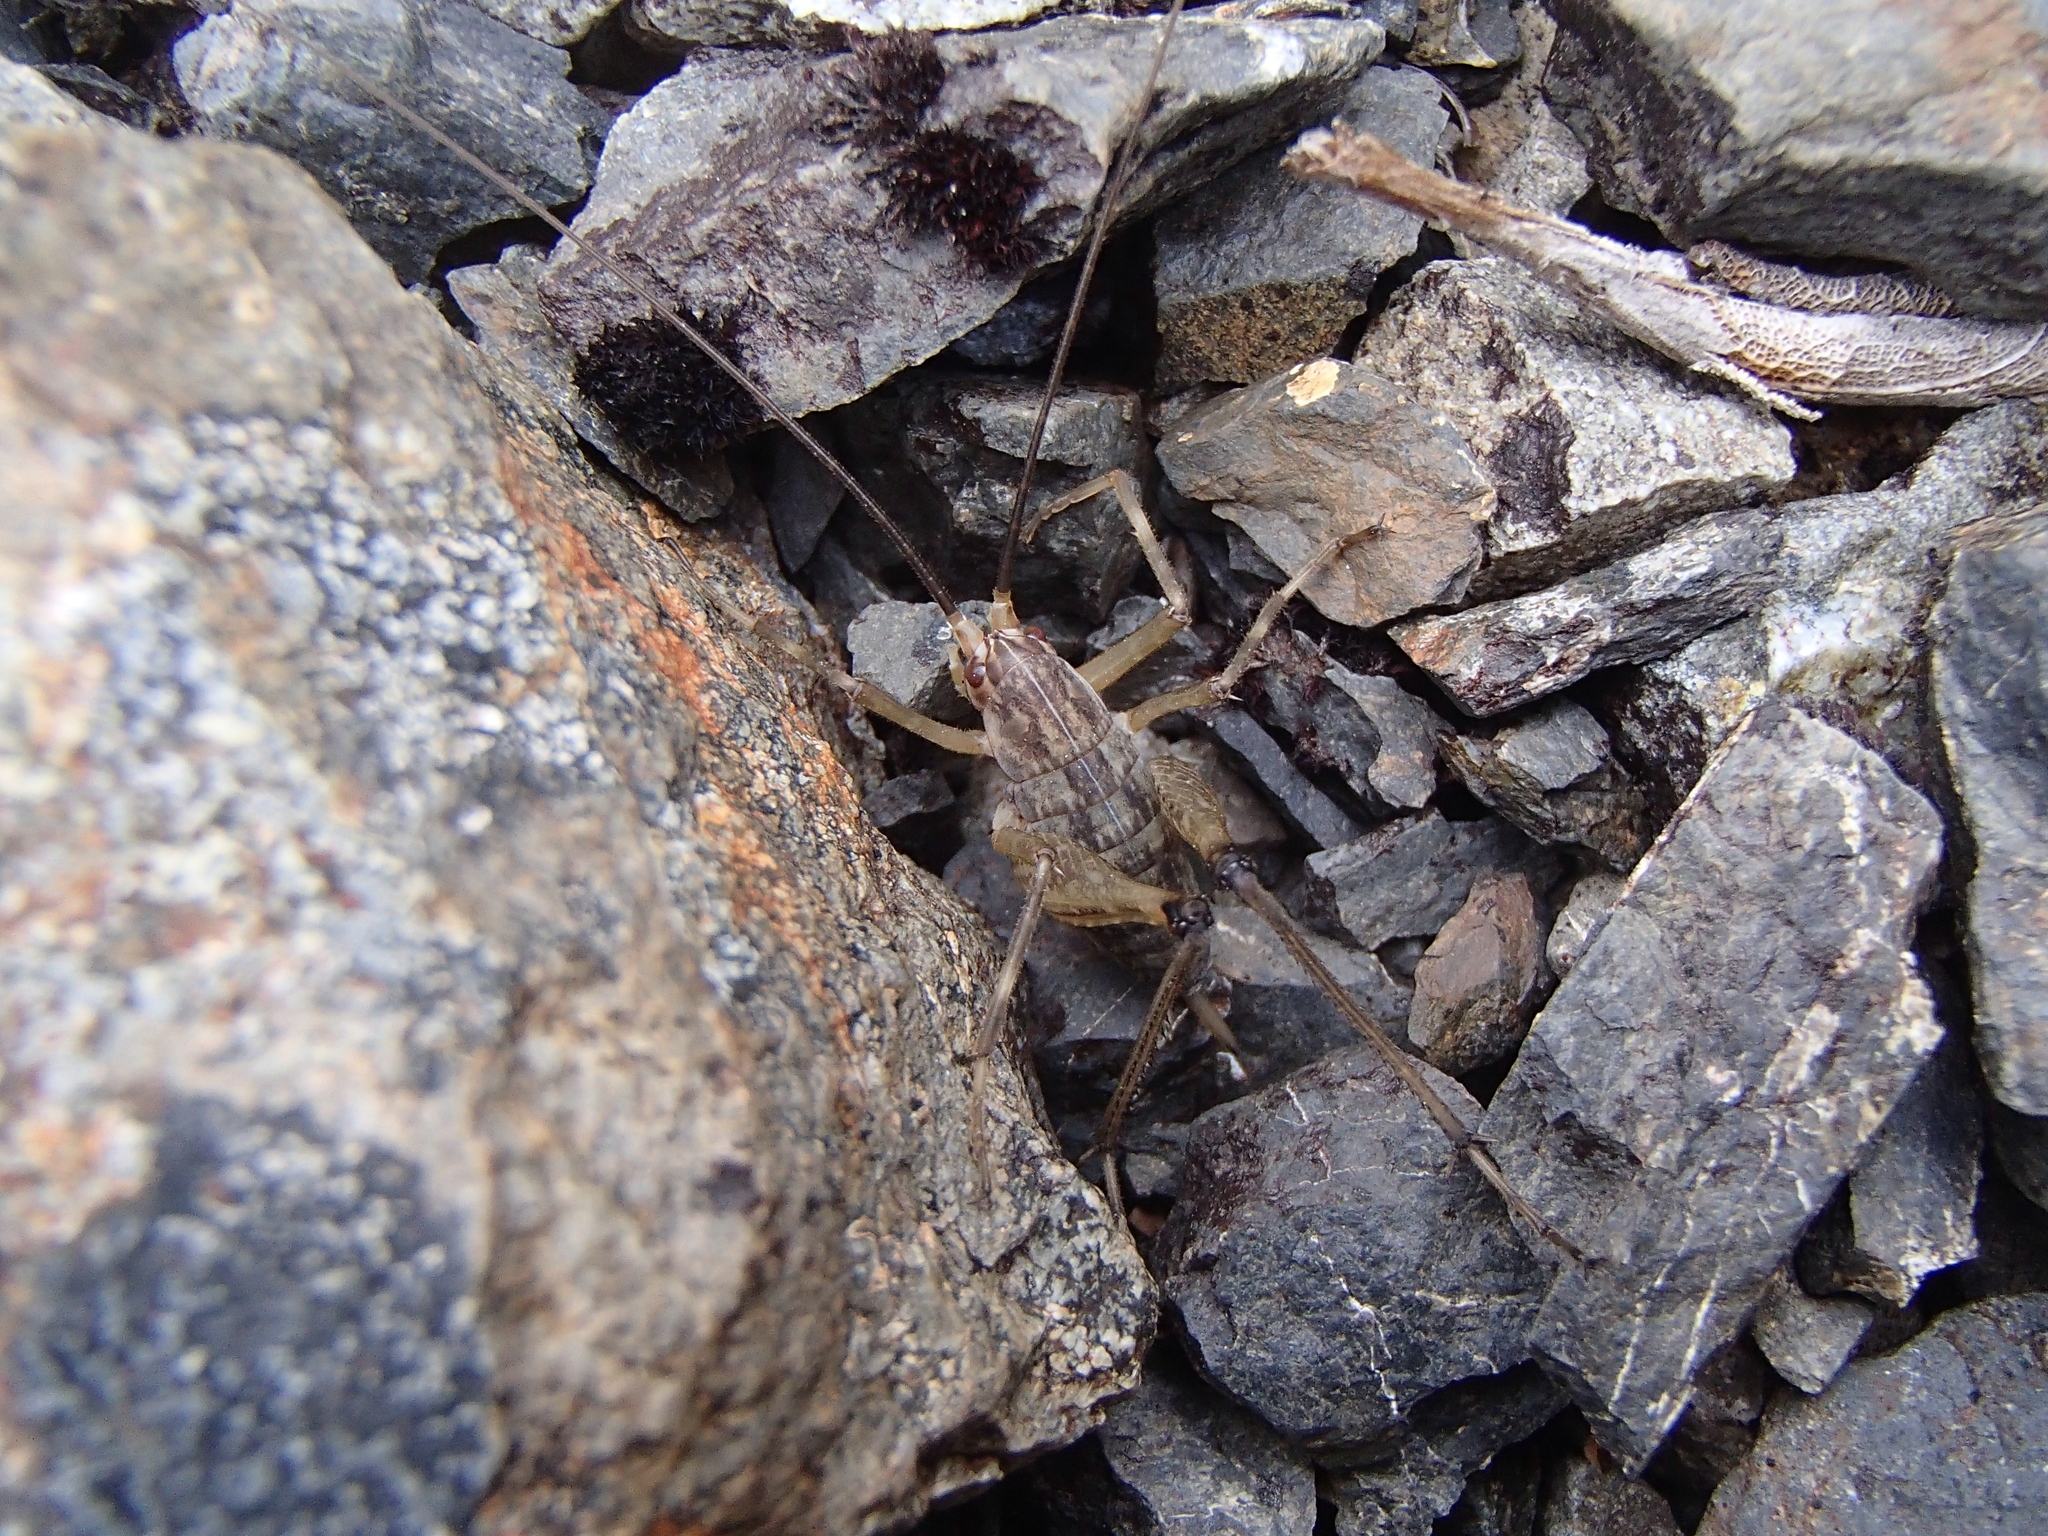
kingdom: Animalia
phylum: Arthropoda
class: Insecta
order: Orthoptera
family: Rhaphidophoridae
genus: Pharmacus
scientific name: Pharmacus montanus
